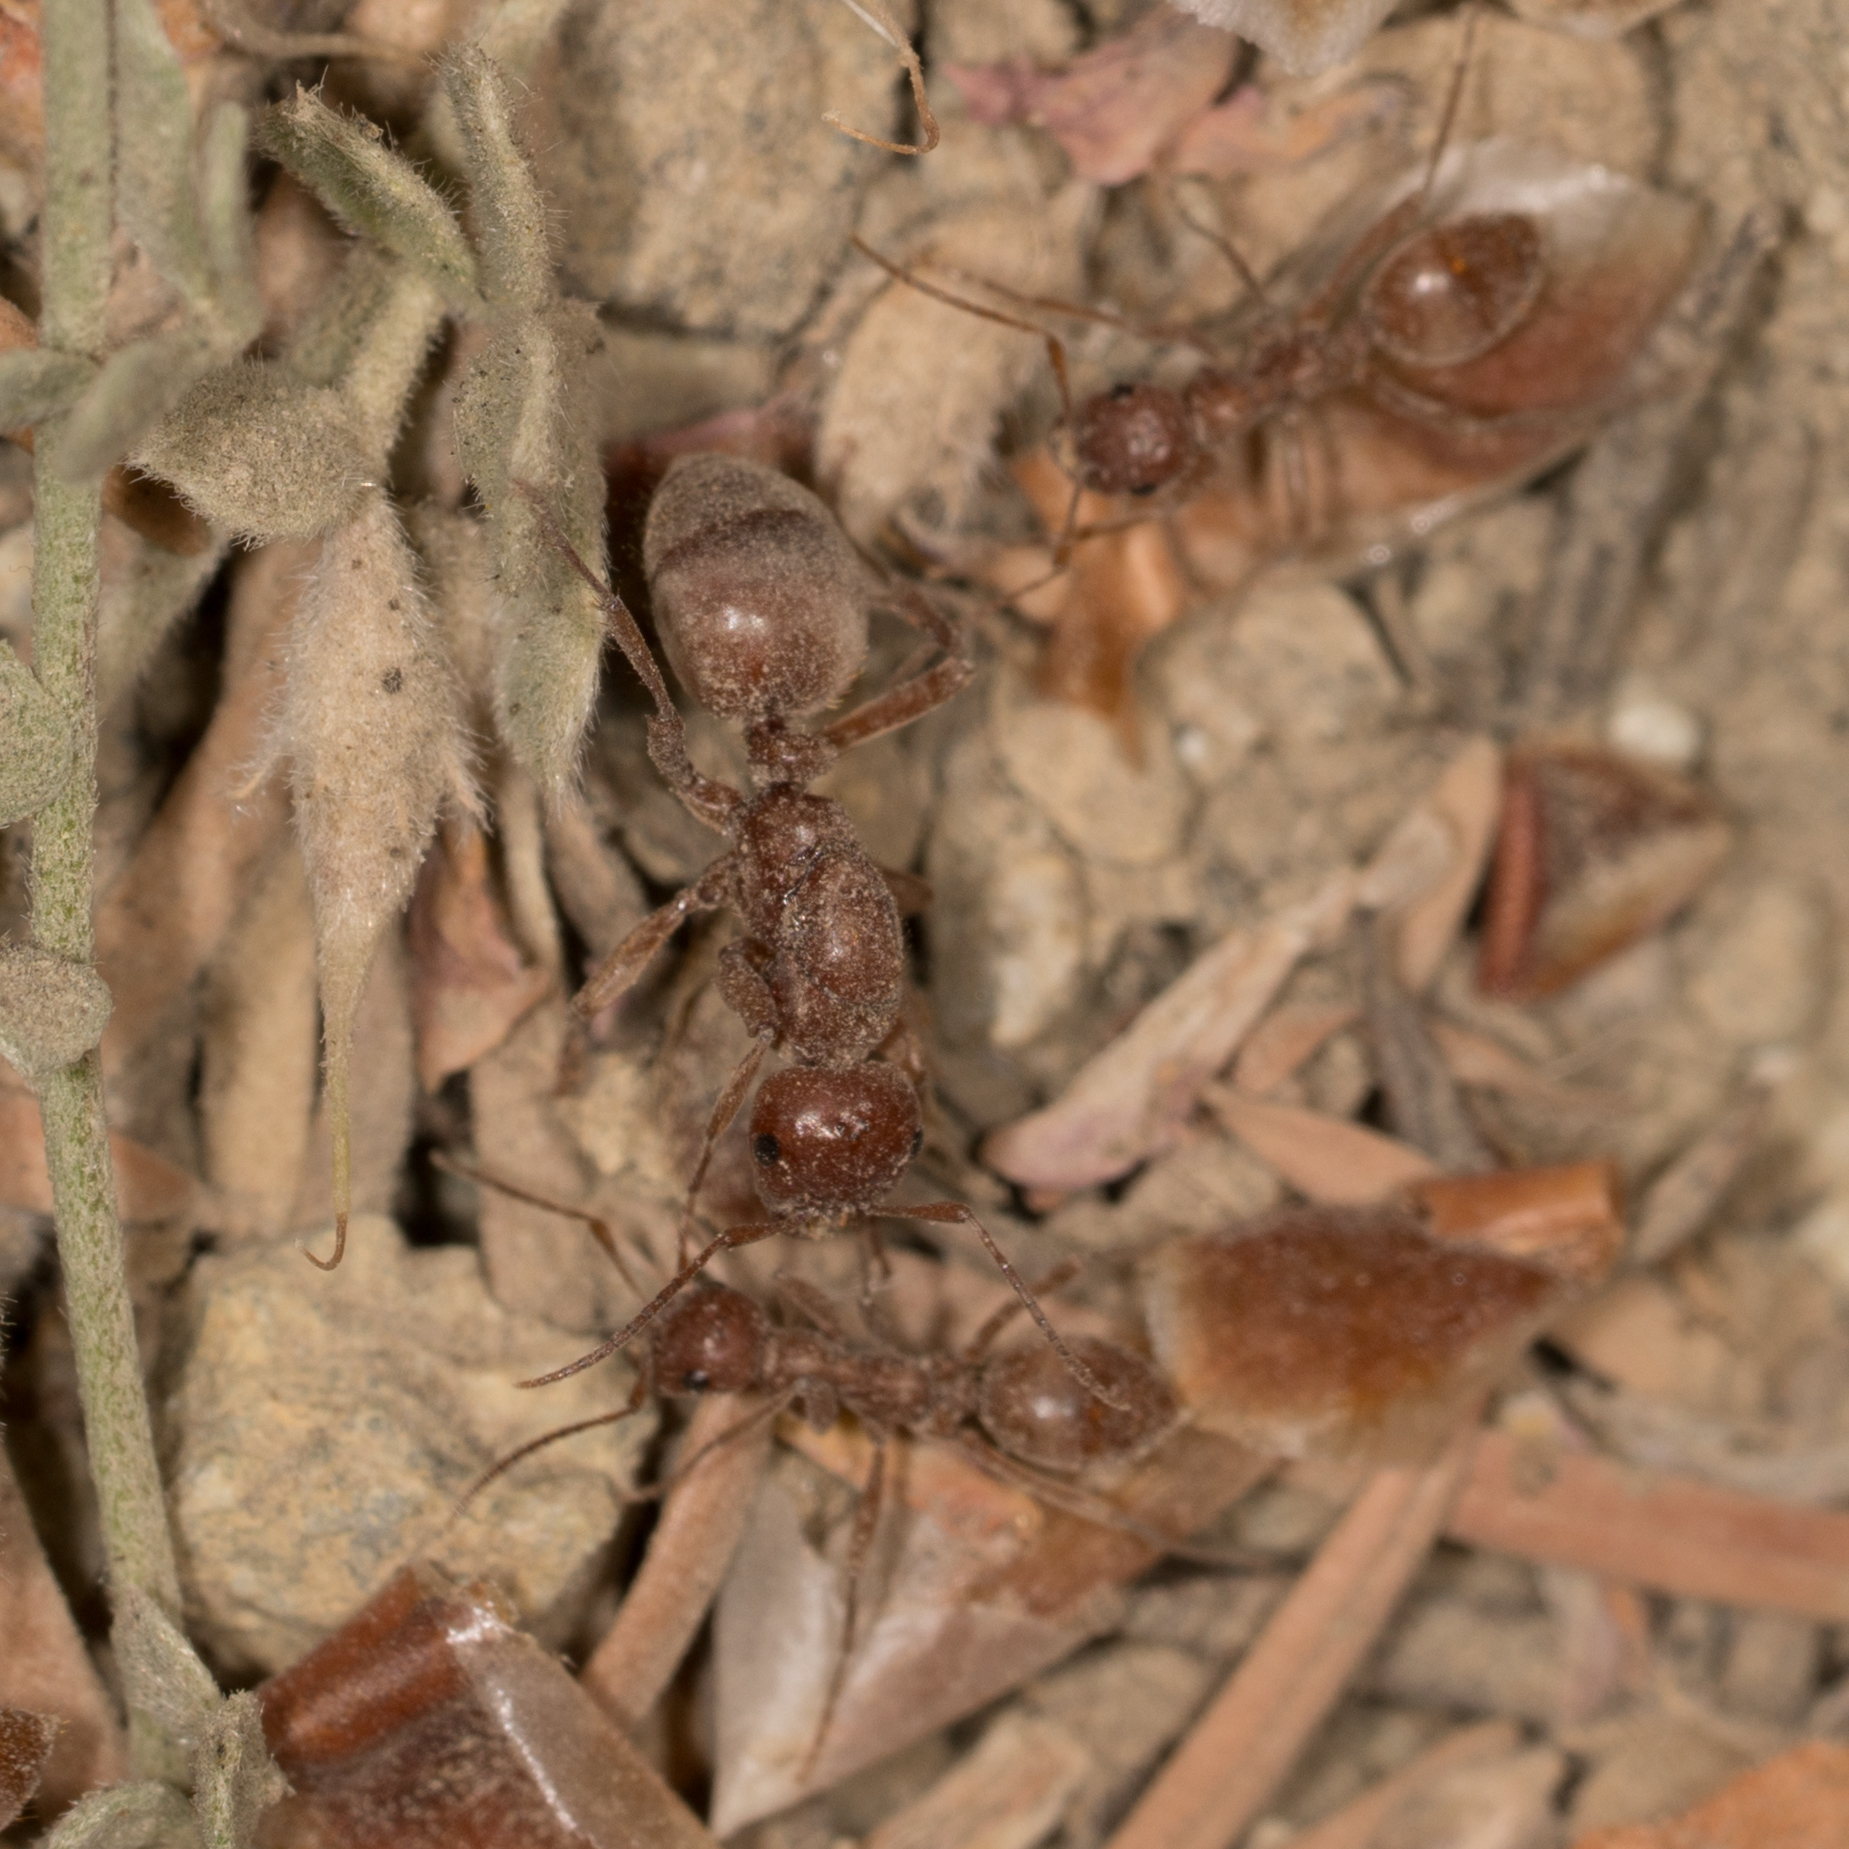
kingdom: Animalia
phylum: Arthropoda
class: Insecta
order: Hymenoptera
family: Formicidae
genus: Polyergus
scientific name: Polyergus vinosus
